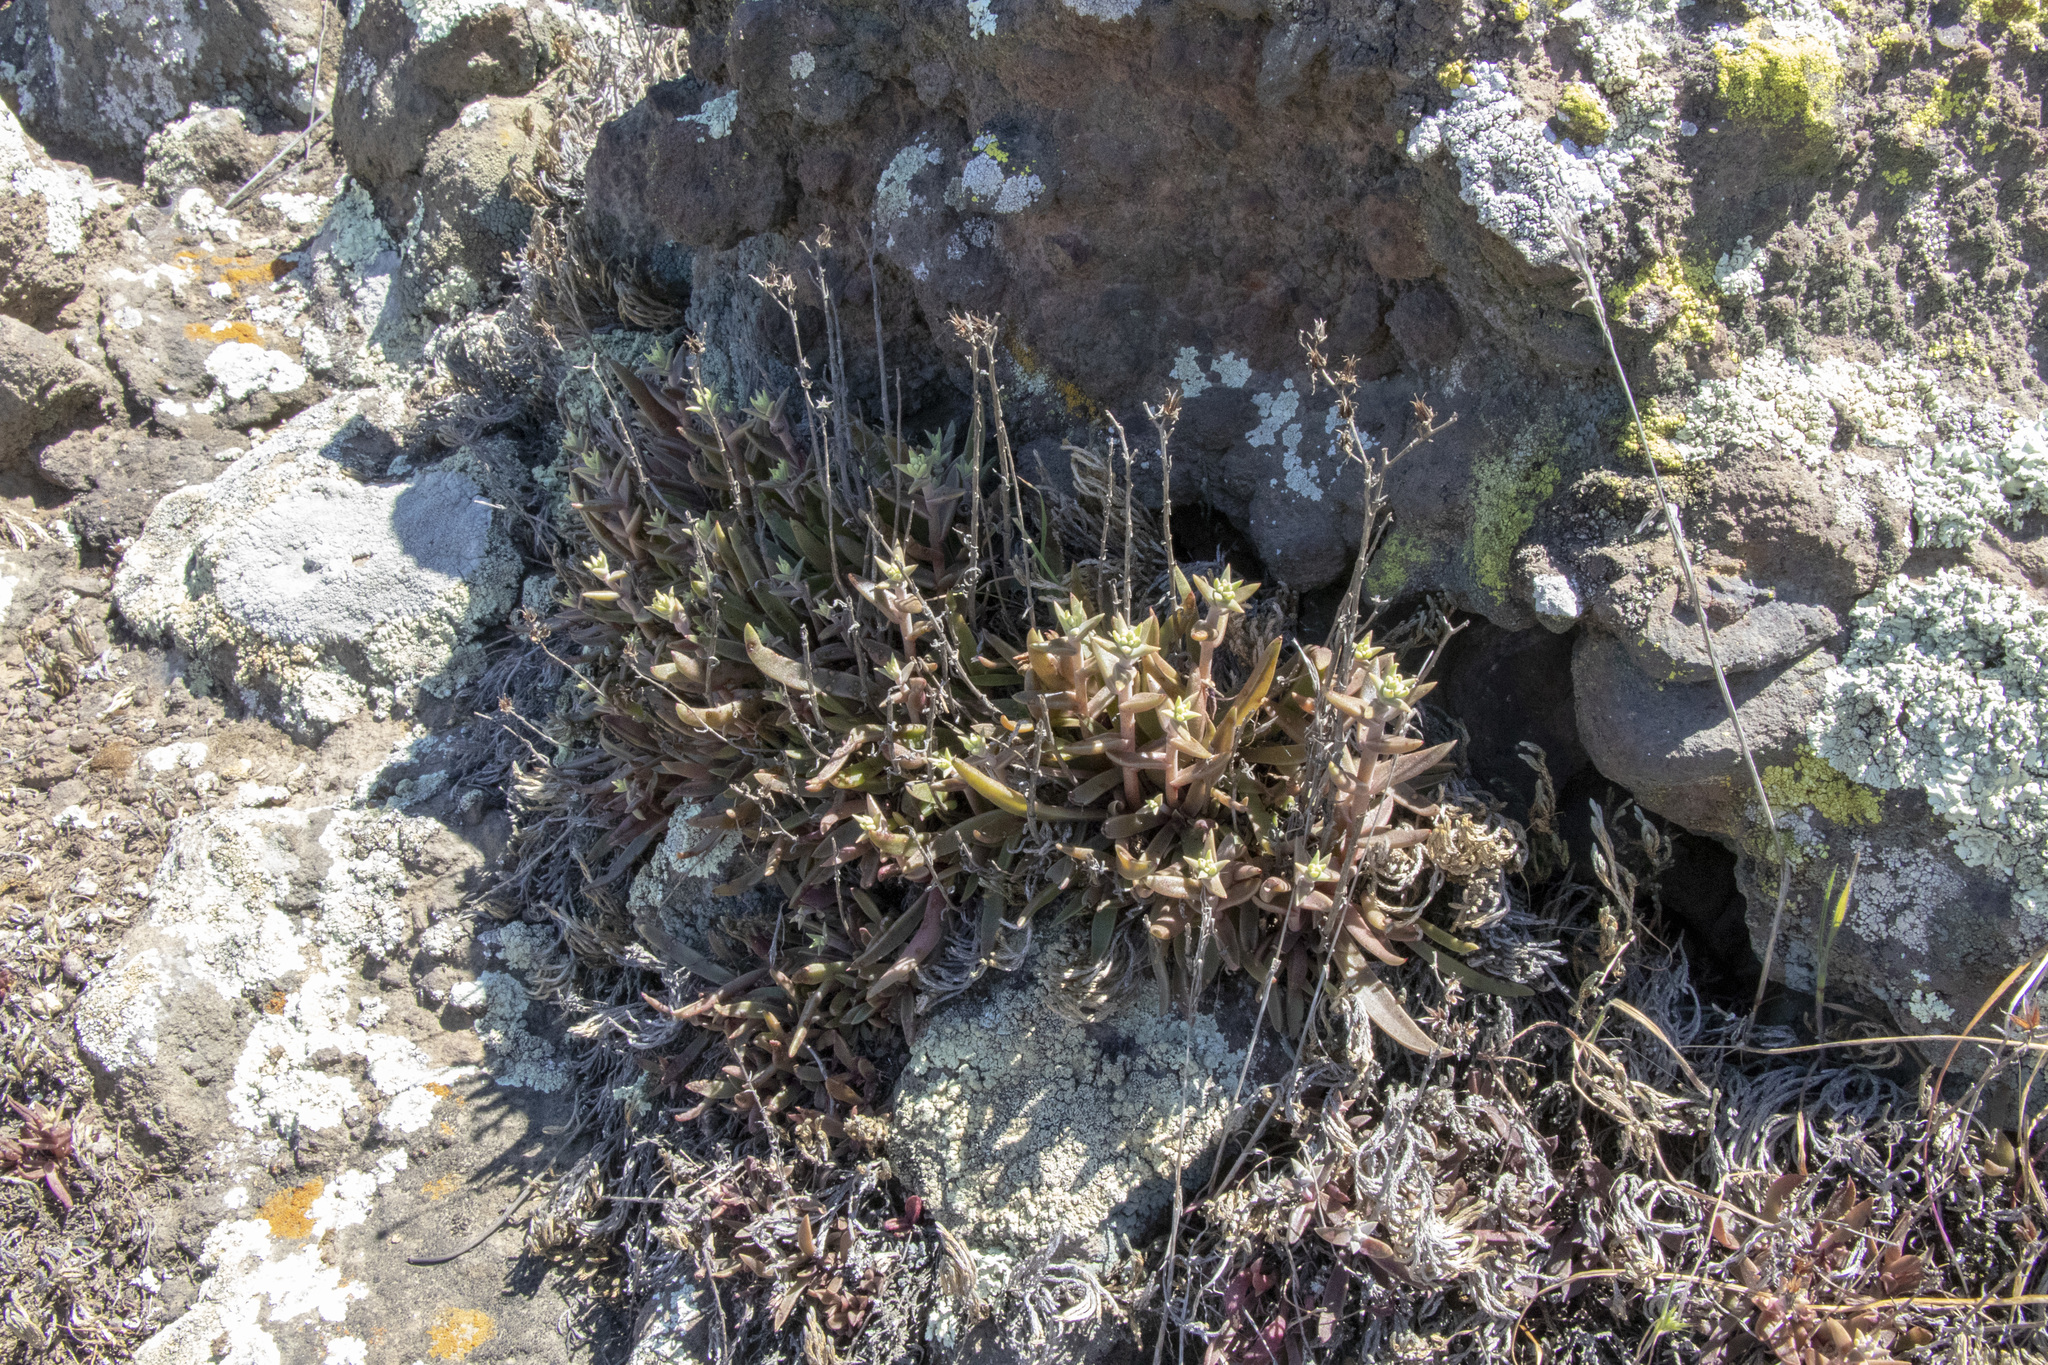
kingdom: Plantae
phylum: Tracheophyta
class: Magnoliopsida
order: Saxifragales
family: Crassulaceae
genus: Dudleya
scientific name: Dudleya parva
